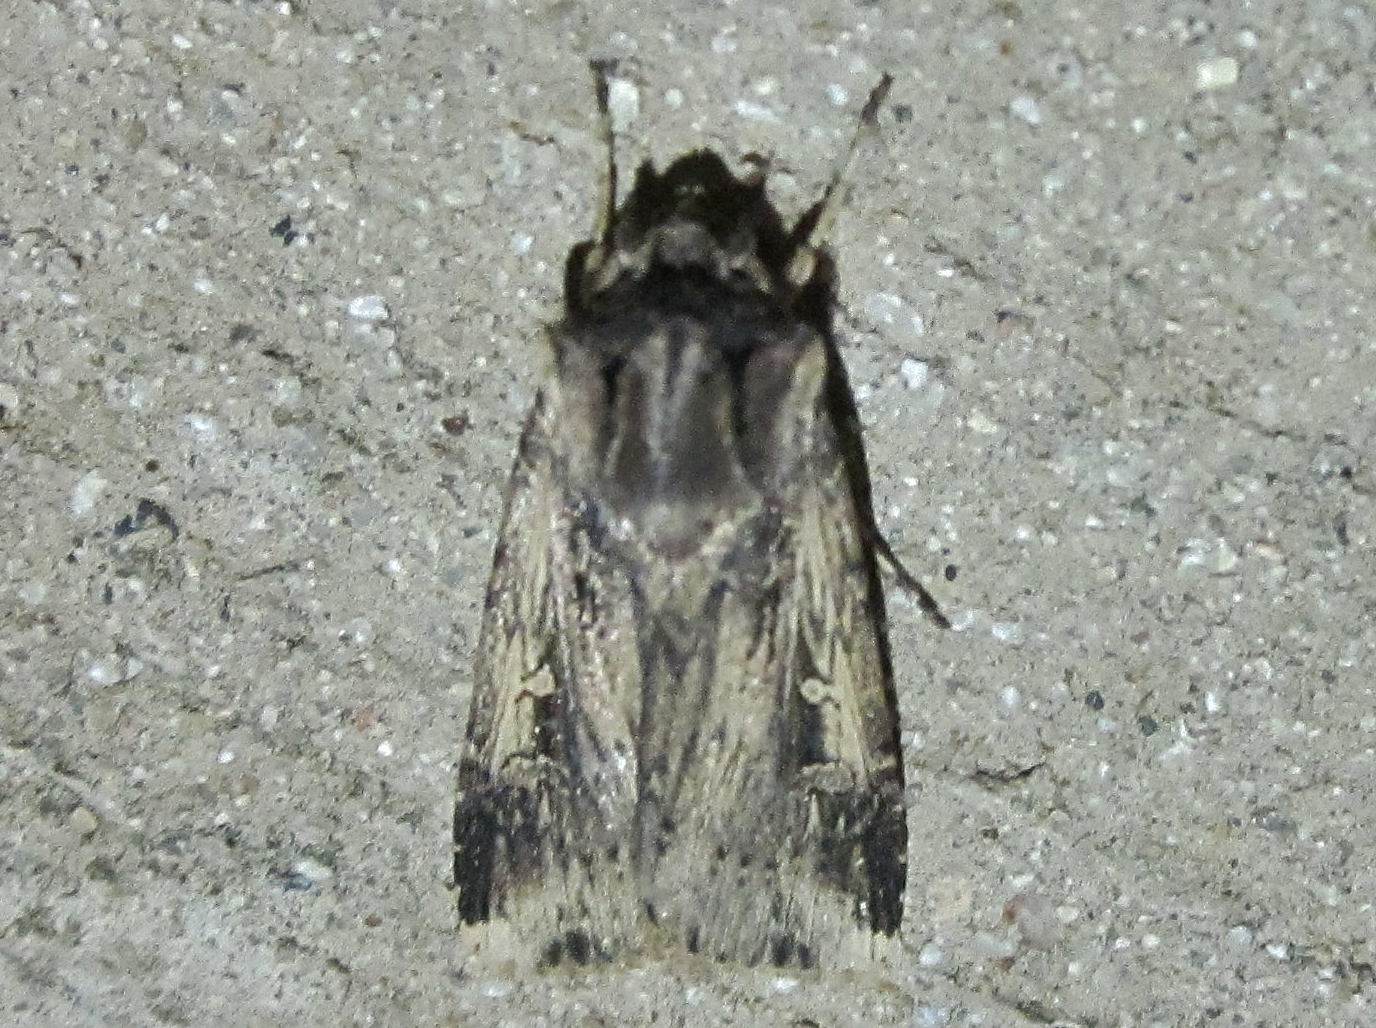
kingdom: Animalia
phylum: Arthropoda
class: Insecta
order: Lepidoptera
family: Noctuidae
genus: Feltia
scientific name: Feltia subterranea
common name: Granulate cutworm
